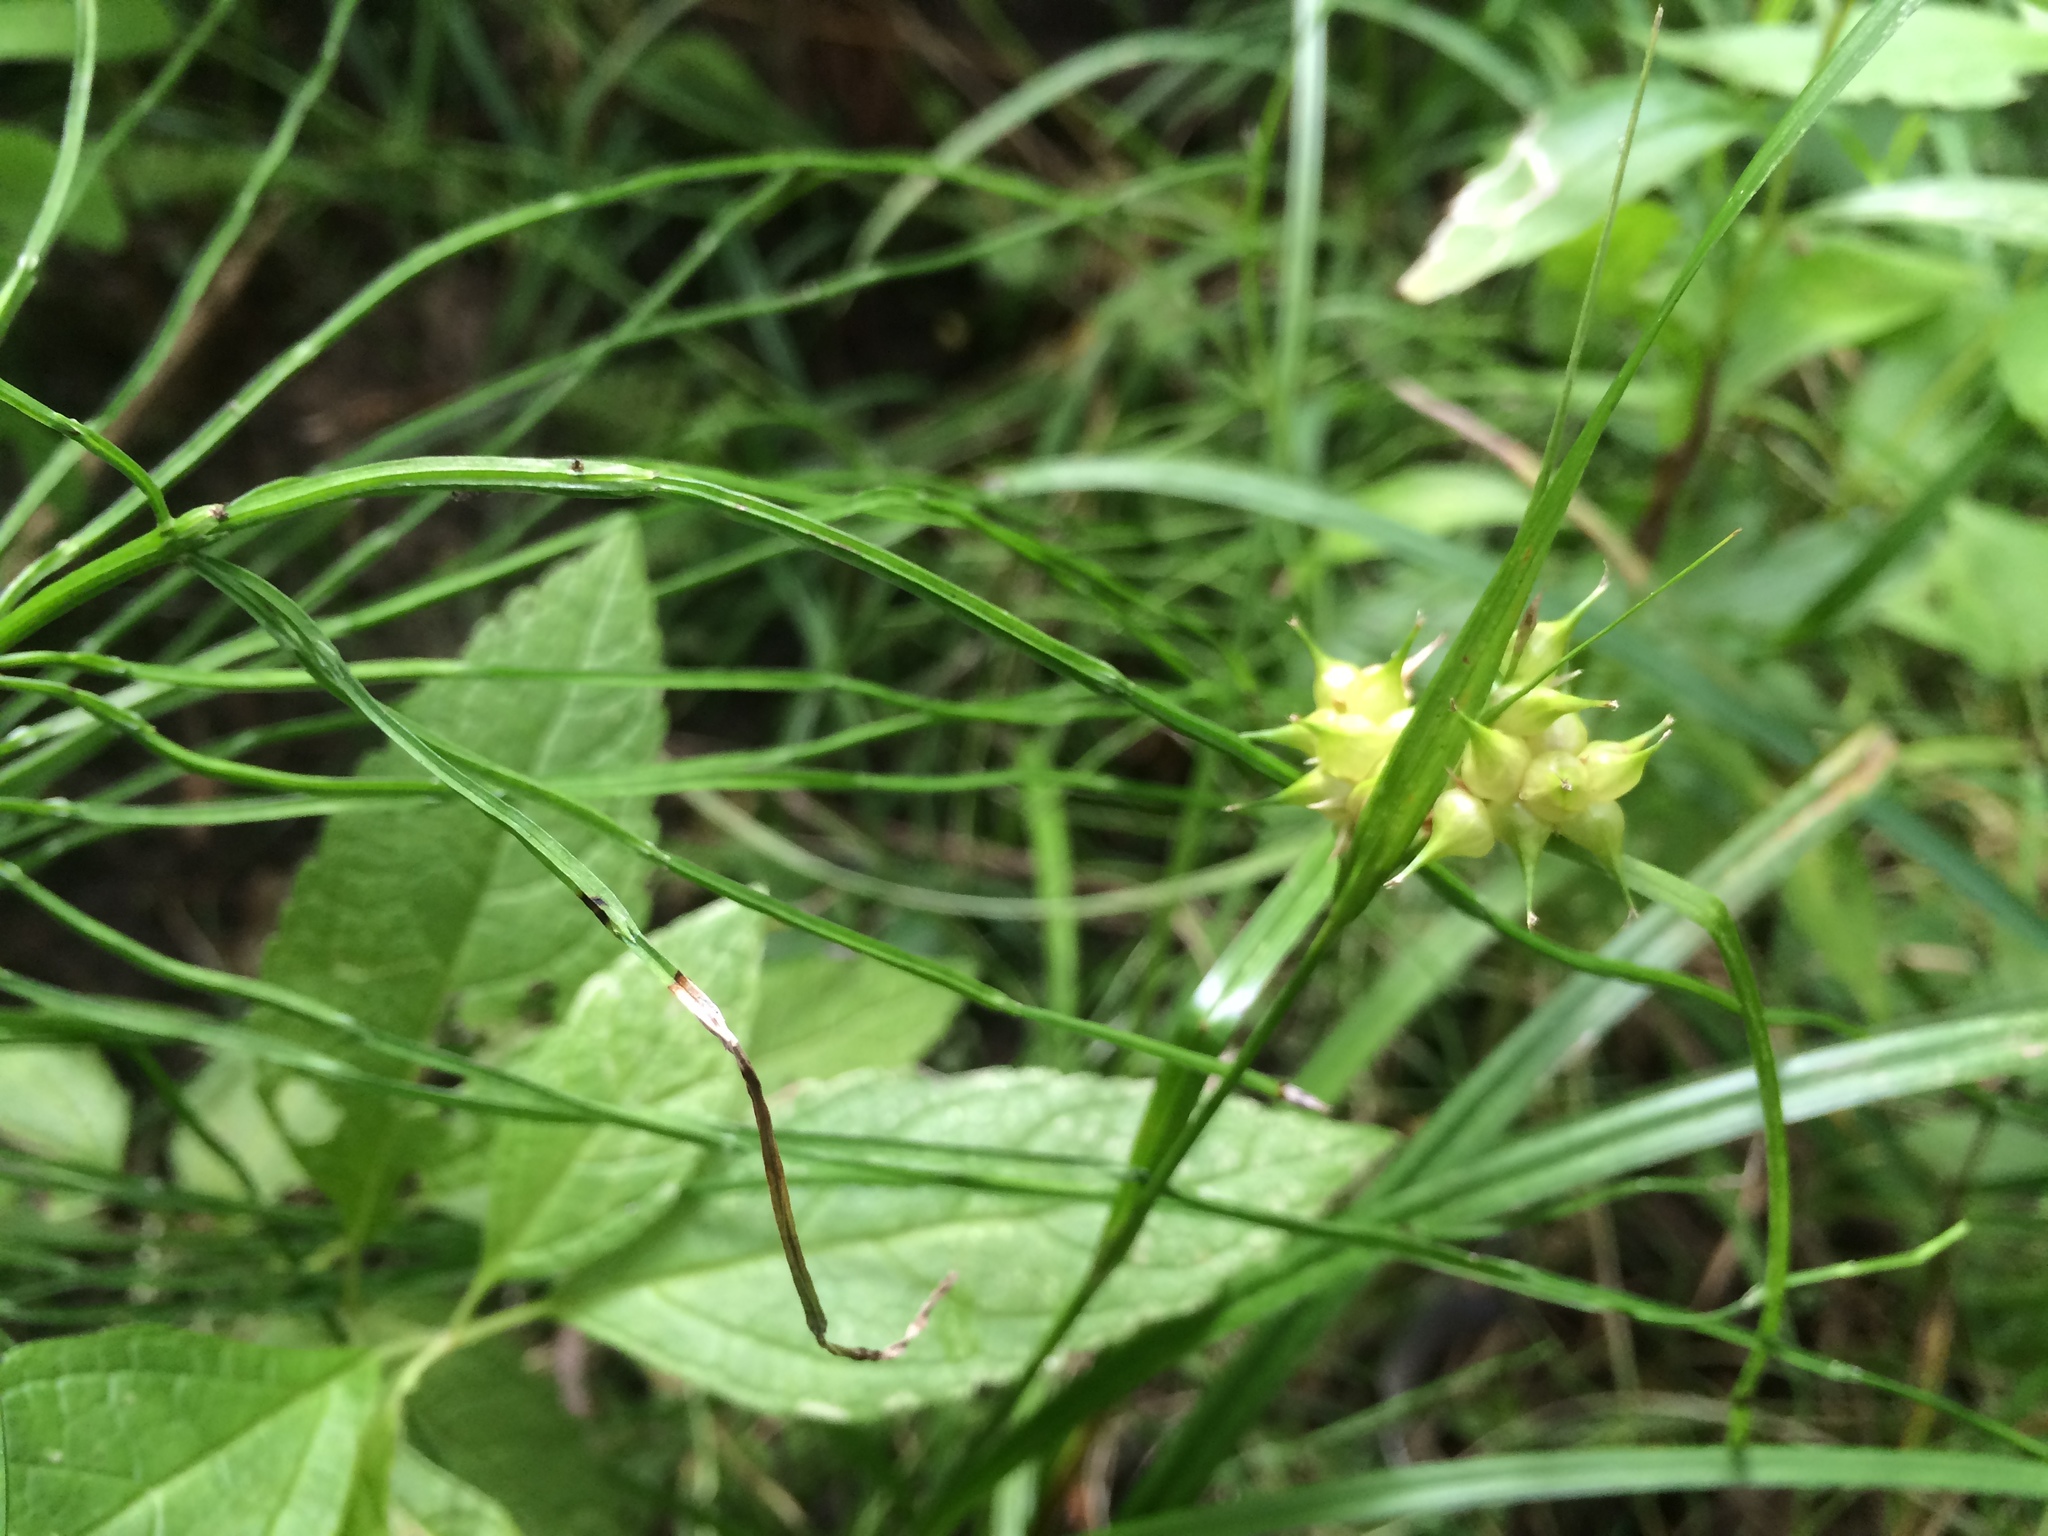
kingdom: Plantae
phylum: Tracheophyta
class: Liliopsida
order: Poales
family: Cyperaceae
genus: Carex
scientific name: Carex intumescens
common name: Greater bladder sedge
